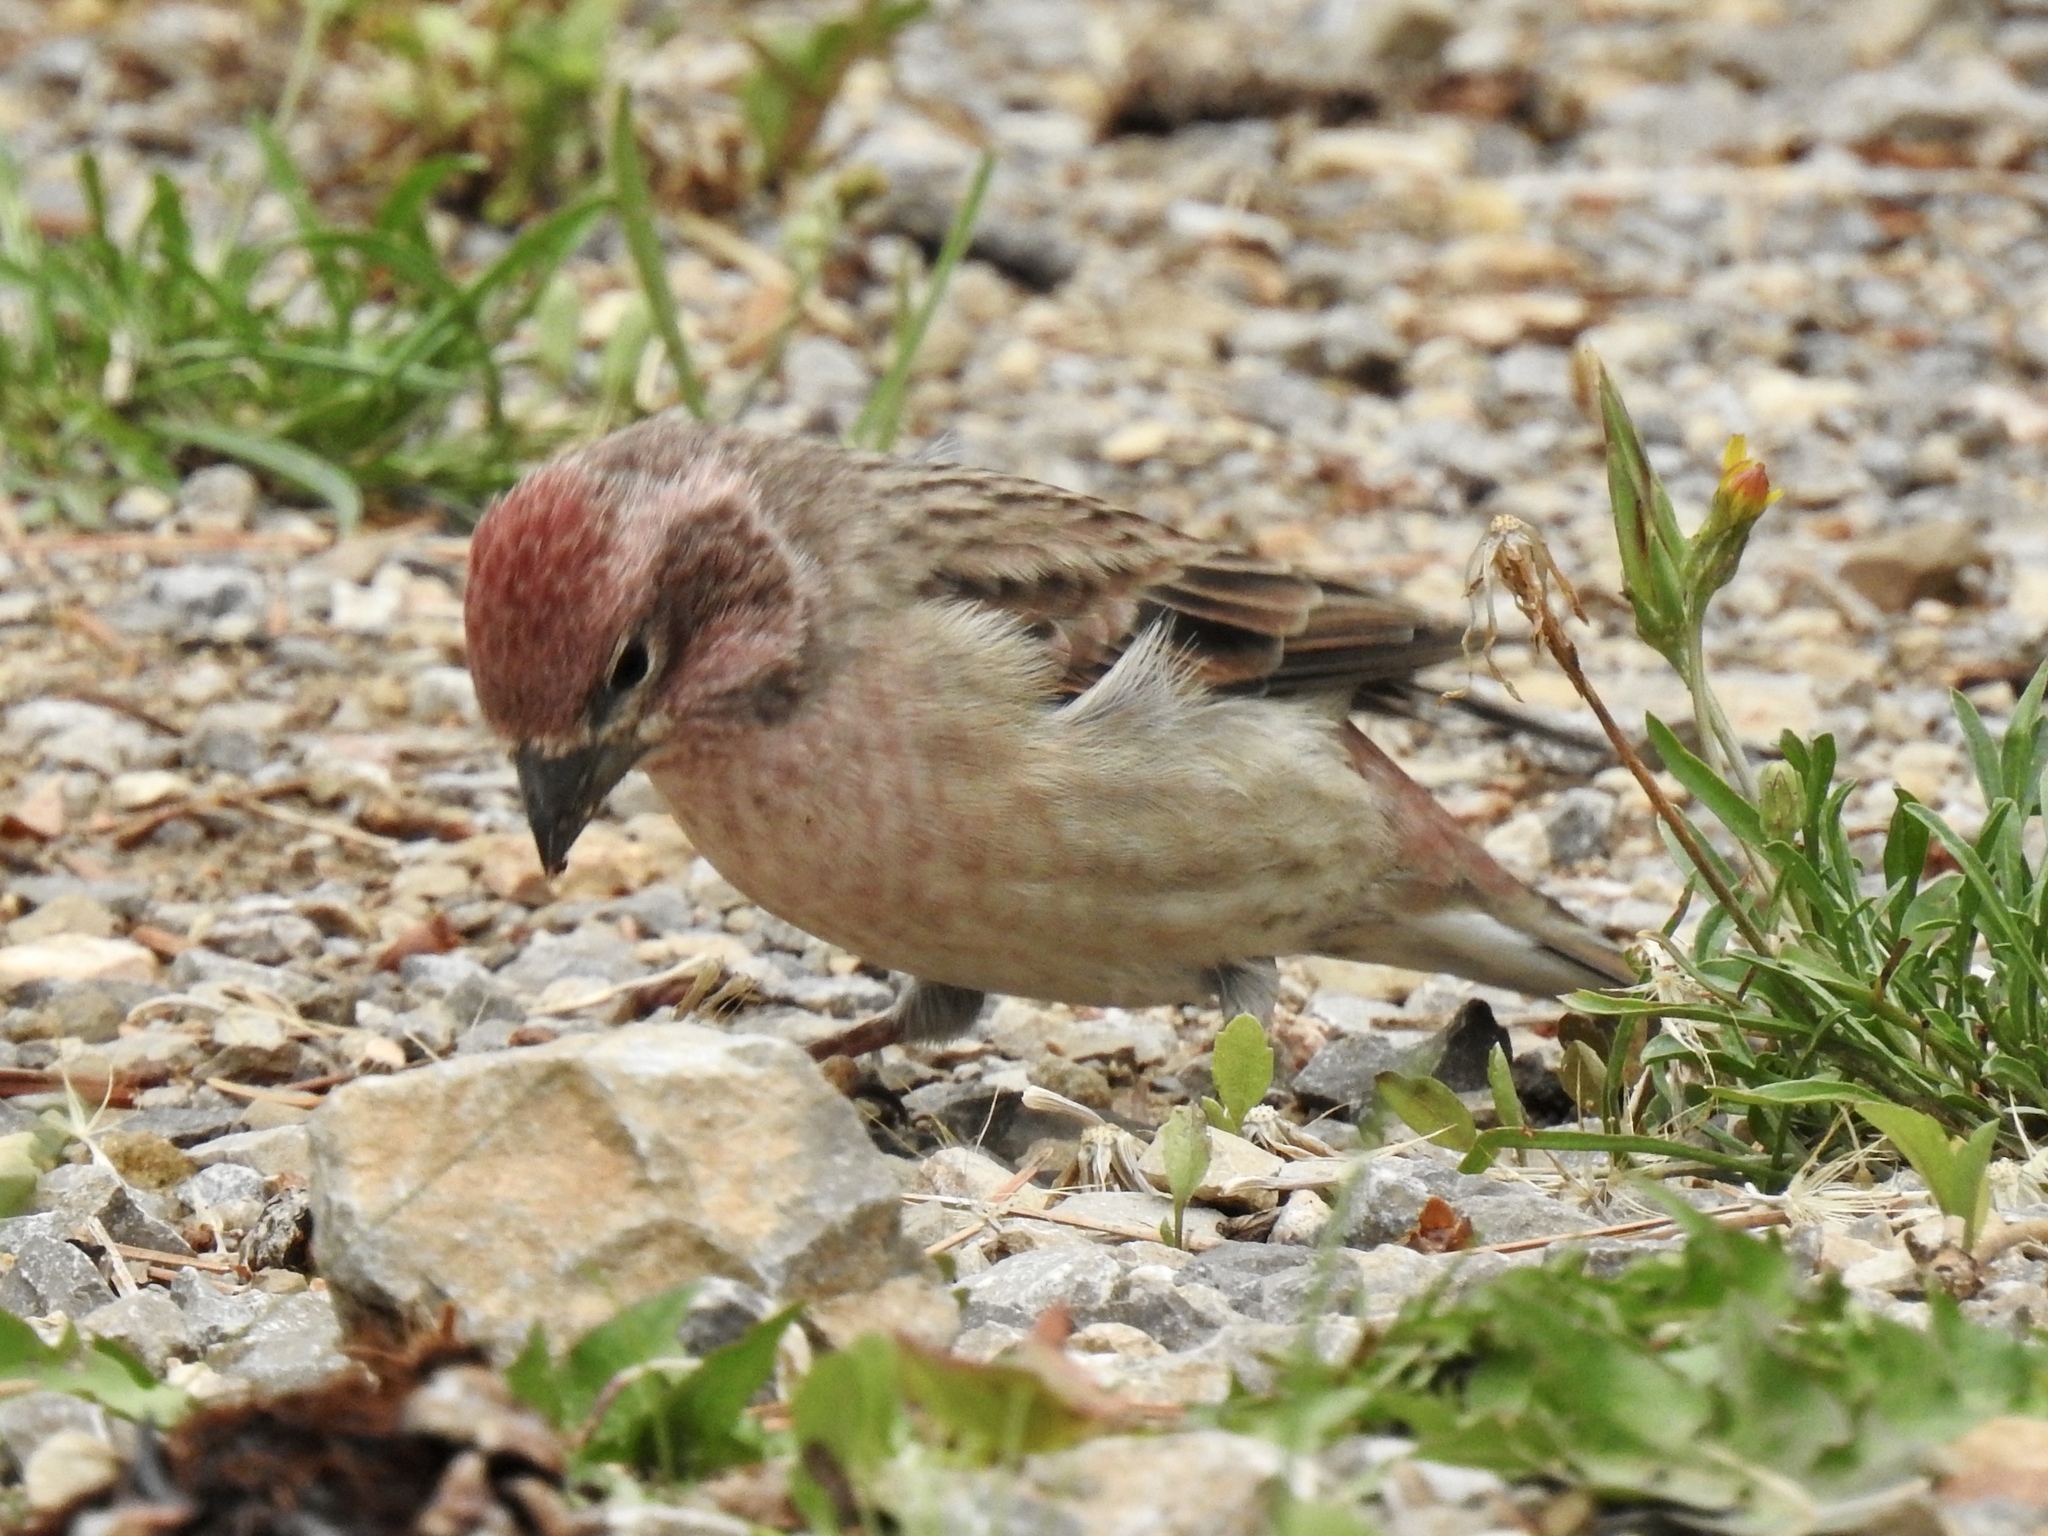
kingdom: Animalia
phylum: Chordata
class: Aves
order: Passeriformes
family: Fringillidae
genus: Haemorhous
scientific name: Haemorhous cassinii
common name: Cassin's finch
